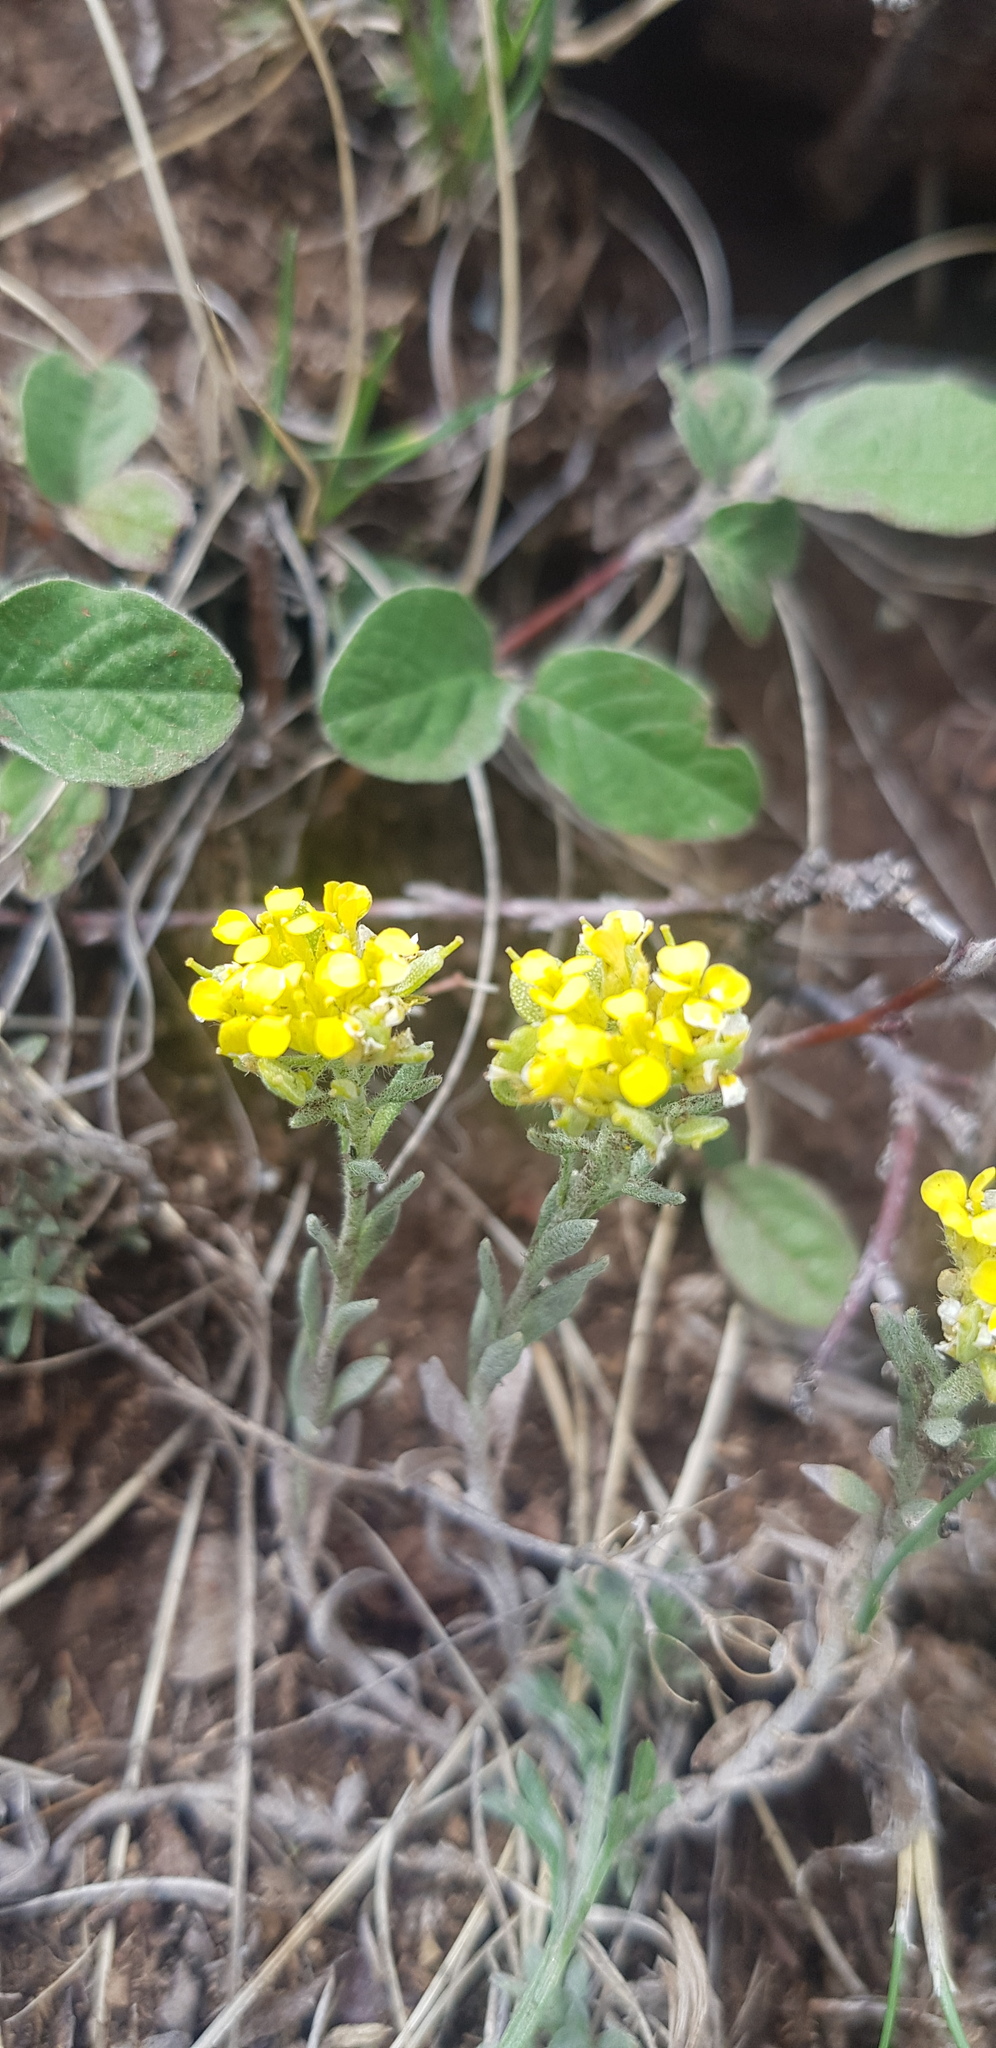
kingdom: Plantae
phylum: Tracheophyta
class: Magnoliopsida
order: Brassicales
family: Brassicaceae
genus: Odontarrhena
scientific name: Odontarrhena obovata
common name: American alyssum
